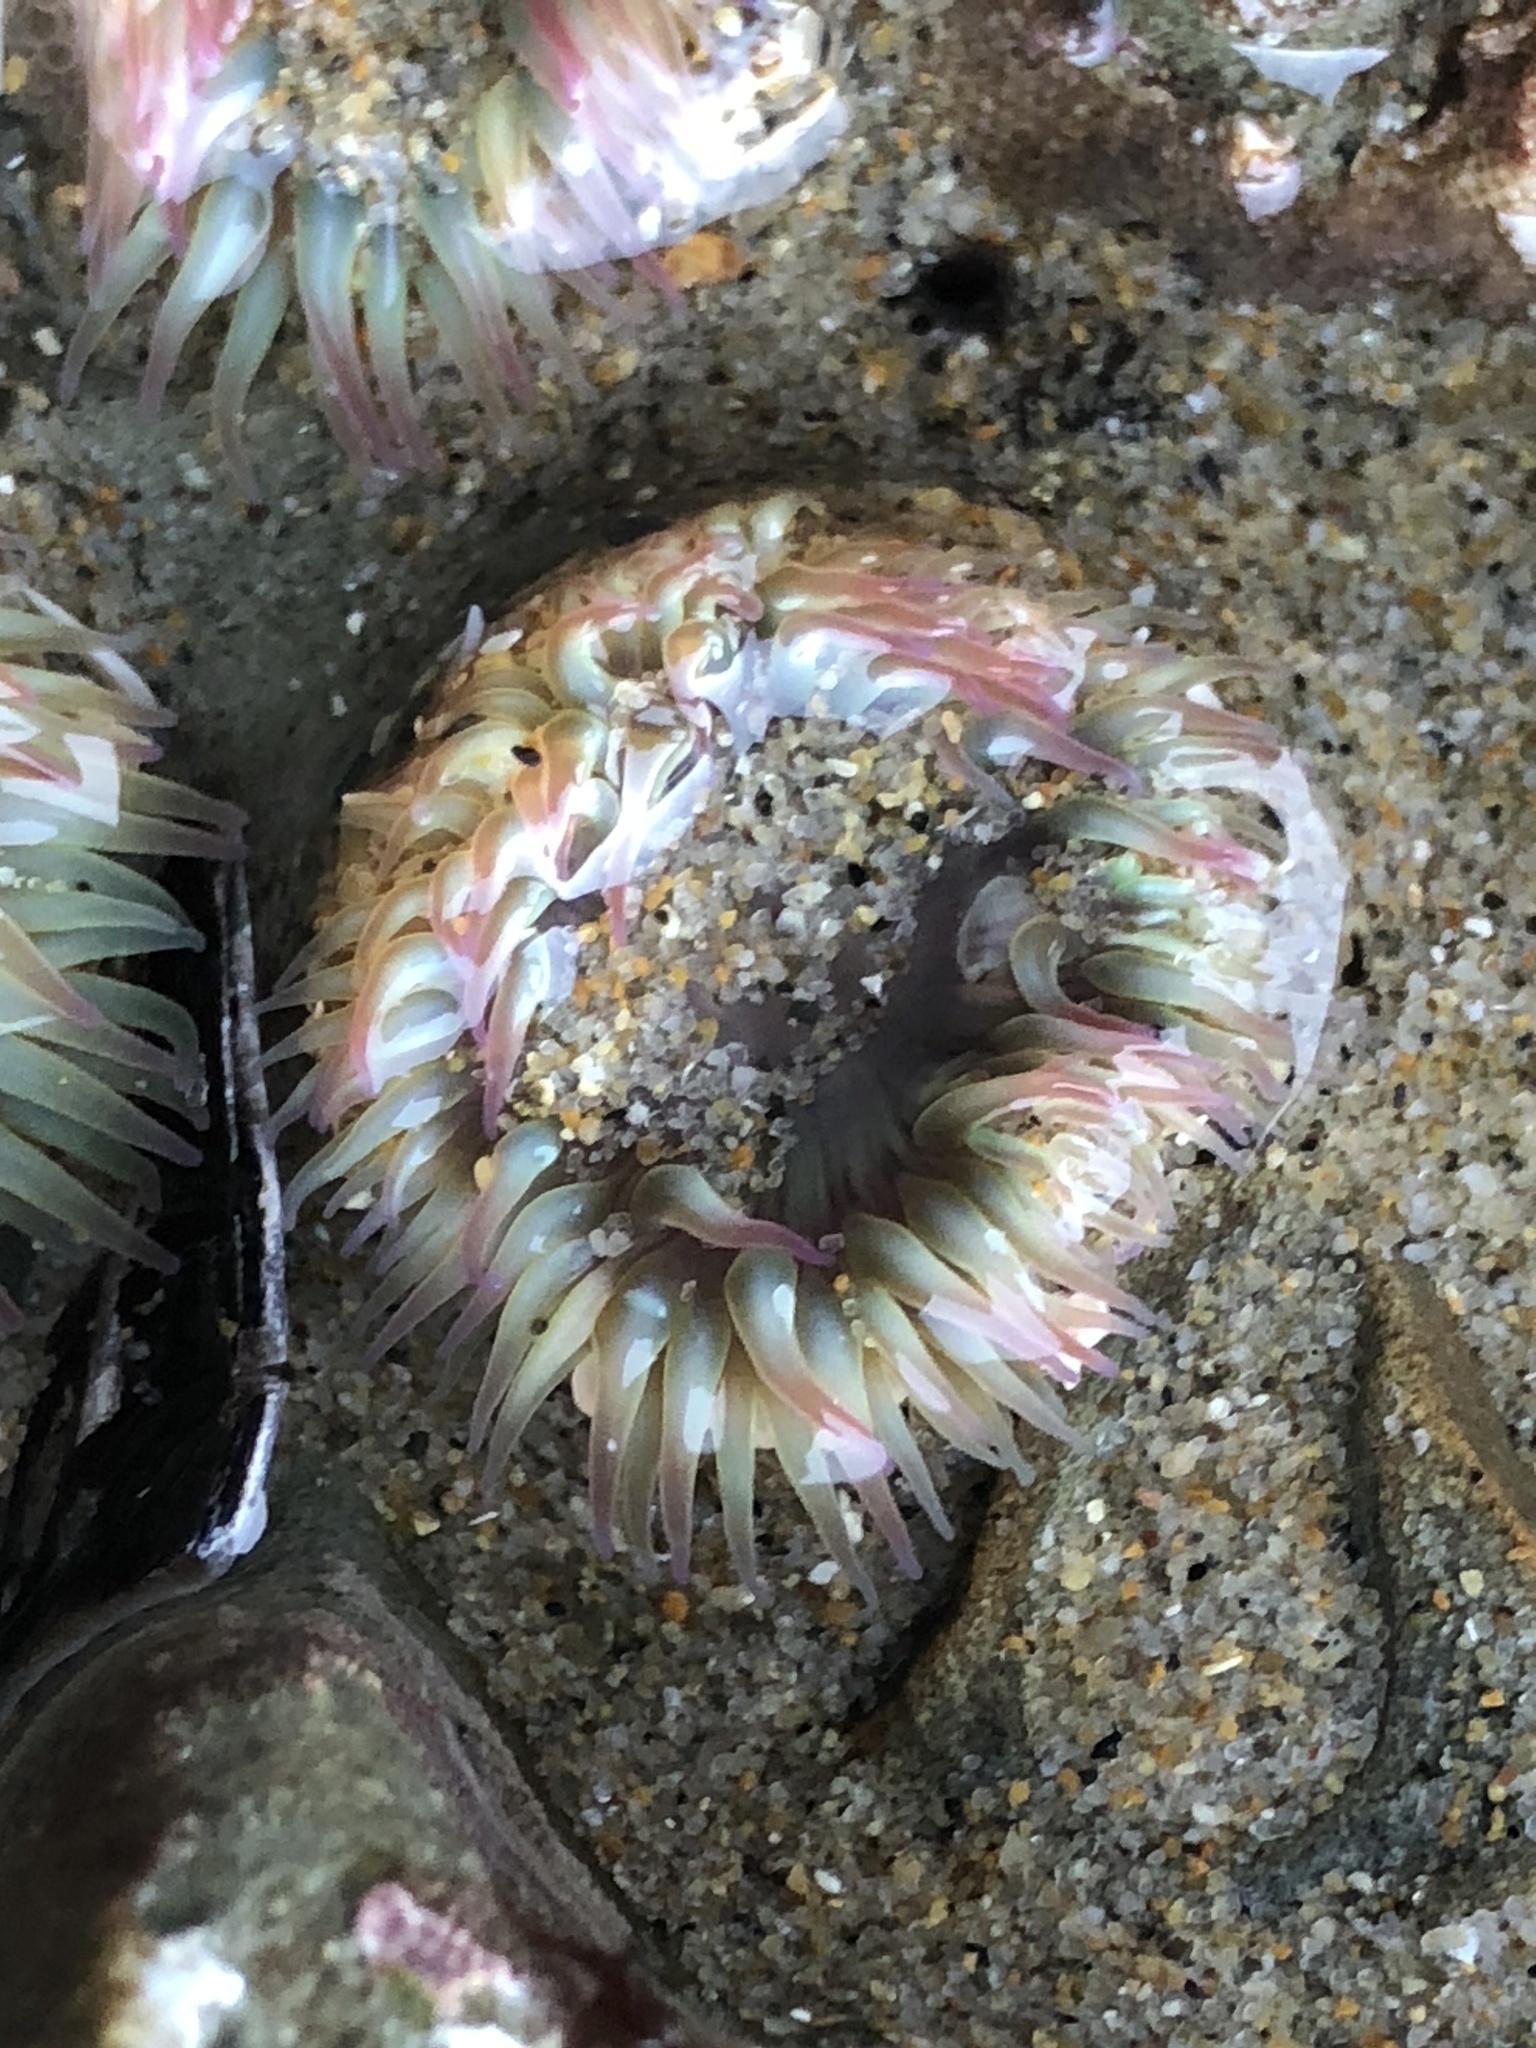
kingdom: Animalia
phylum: Cnidaria
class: Anthozoa
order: Actiniaria
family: Actiniidae
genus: Anthopleura
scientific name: Anthopleura elegantissima
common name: Clonal anemone
